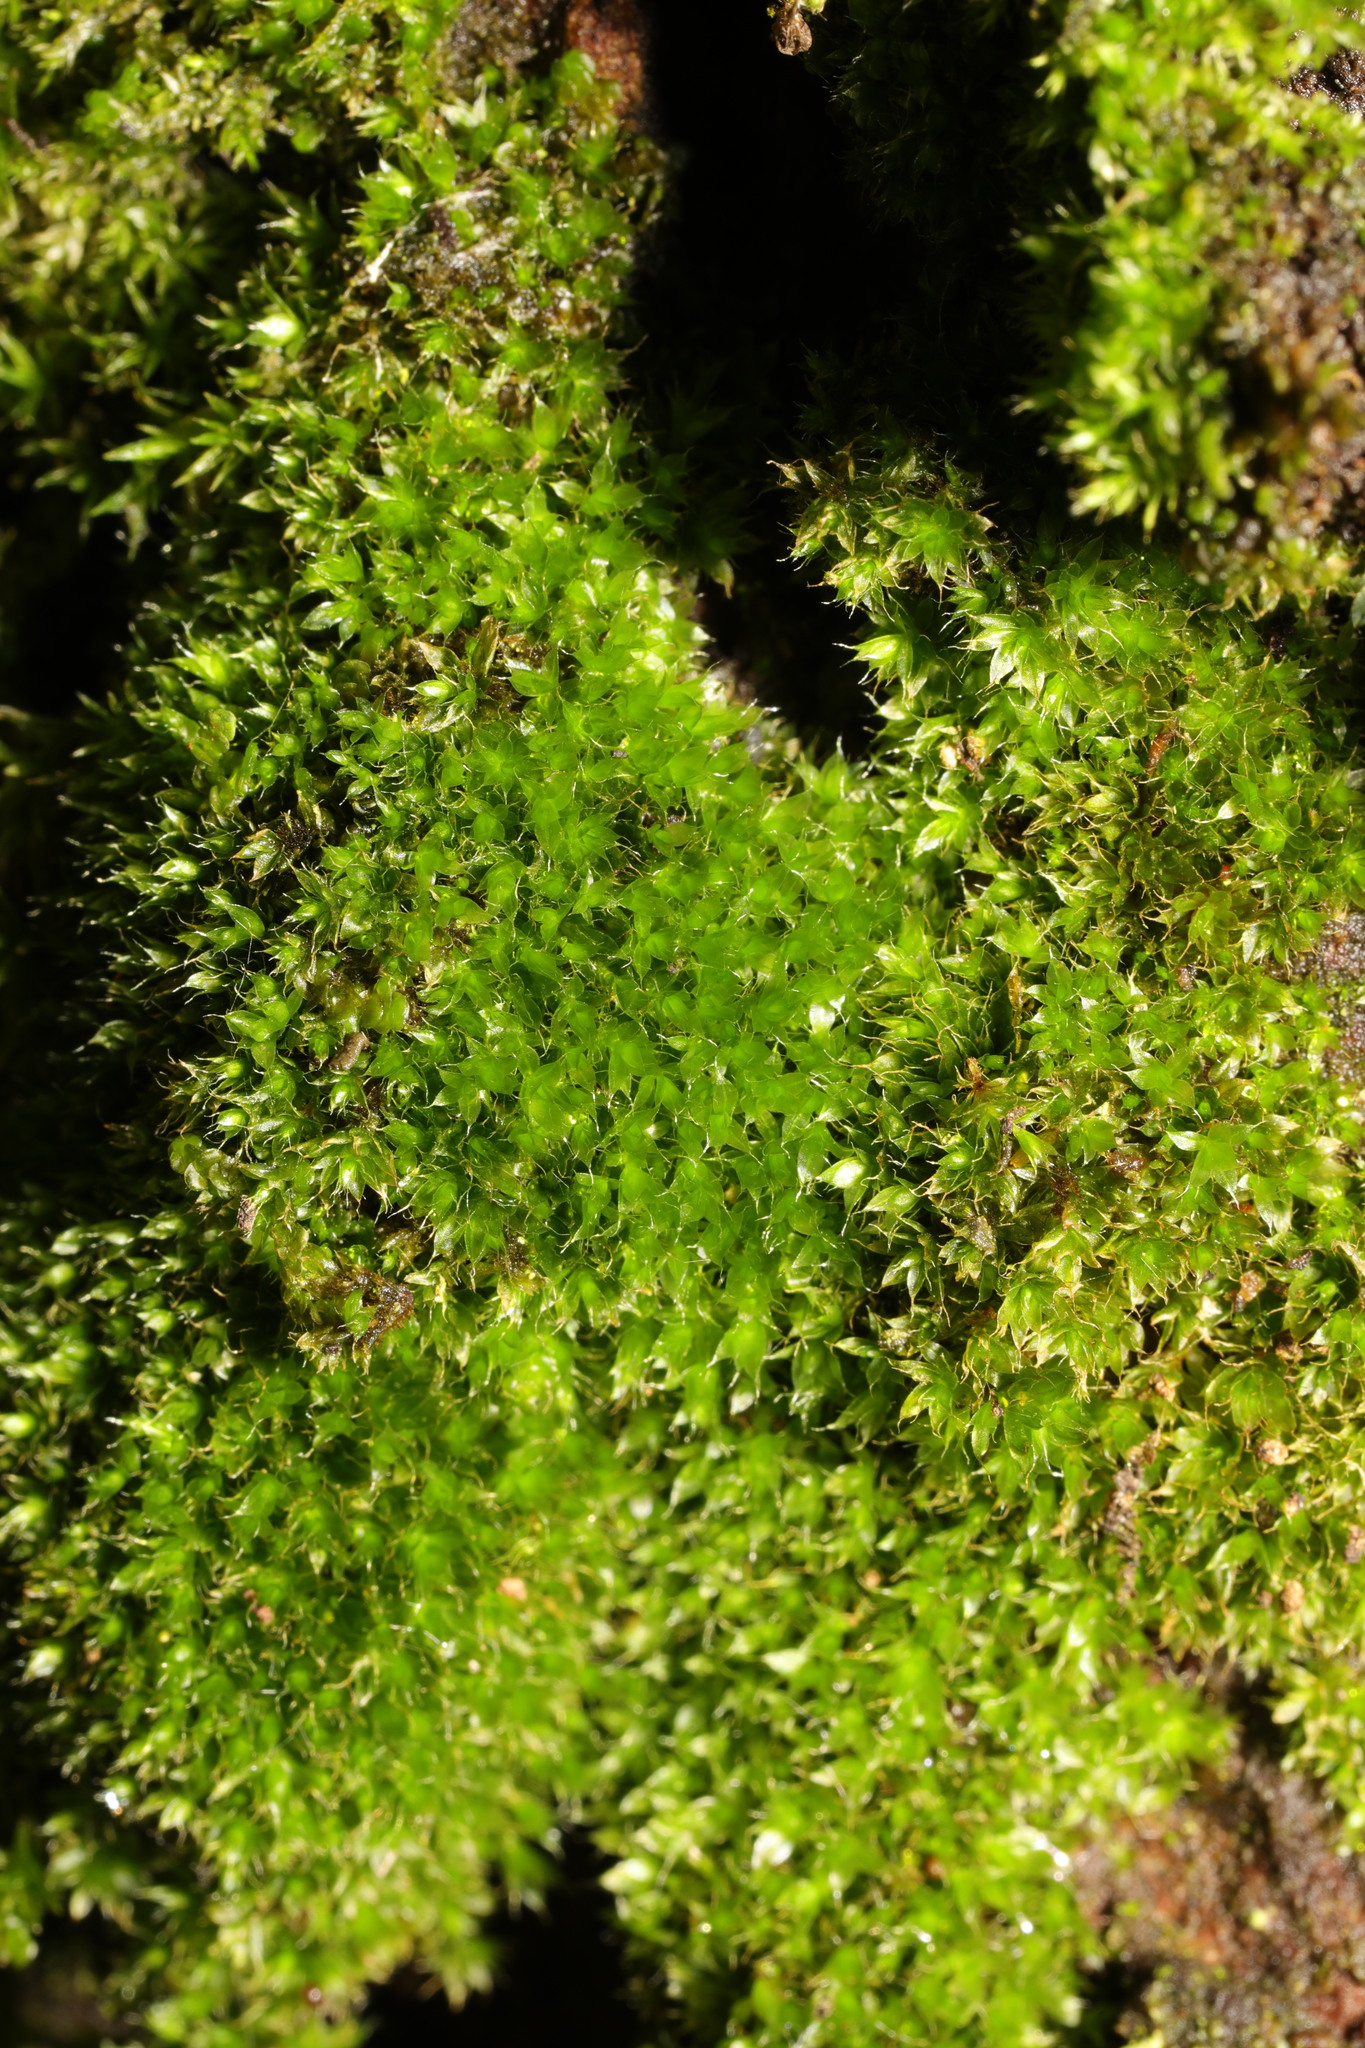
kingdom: Plantae
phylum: Bryophyta
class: Bryopsida
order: Bryales
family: Bryaceae
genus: Rosulabryum
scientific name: Rosulabryum capillare
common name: Capillary thread-moss
